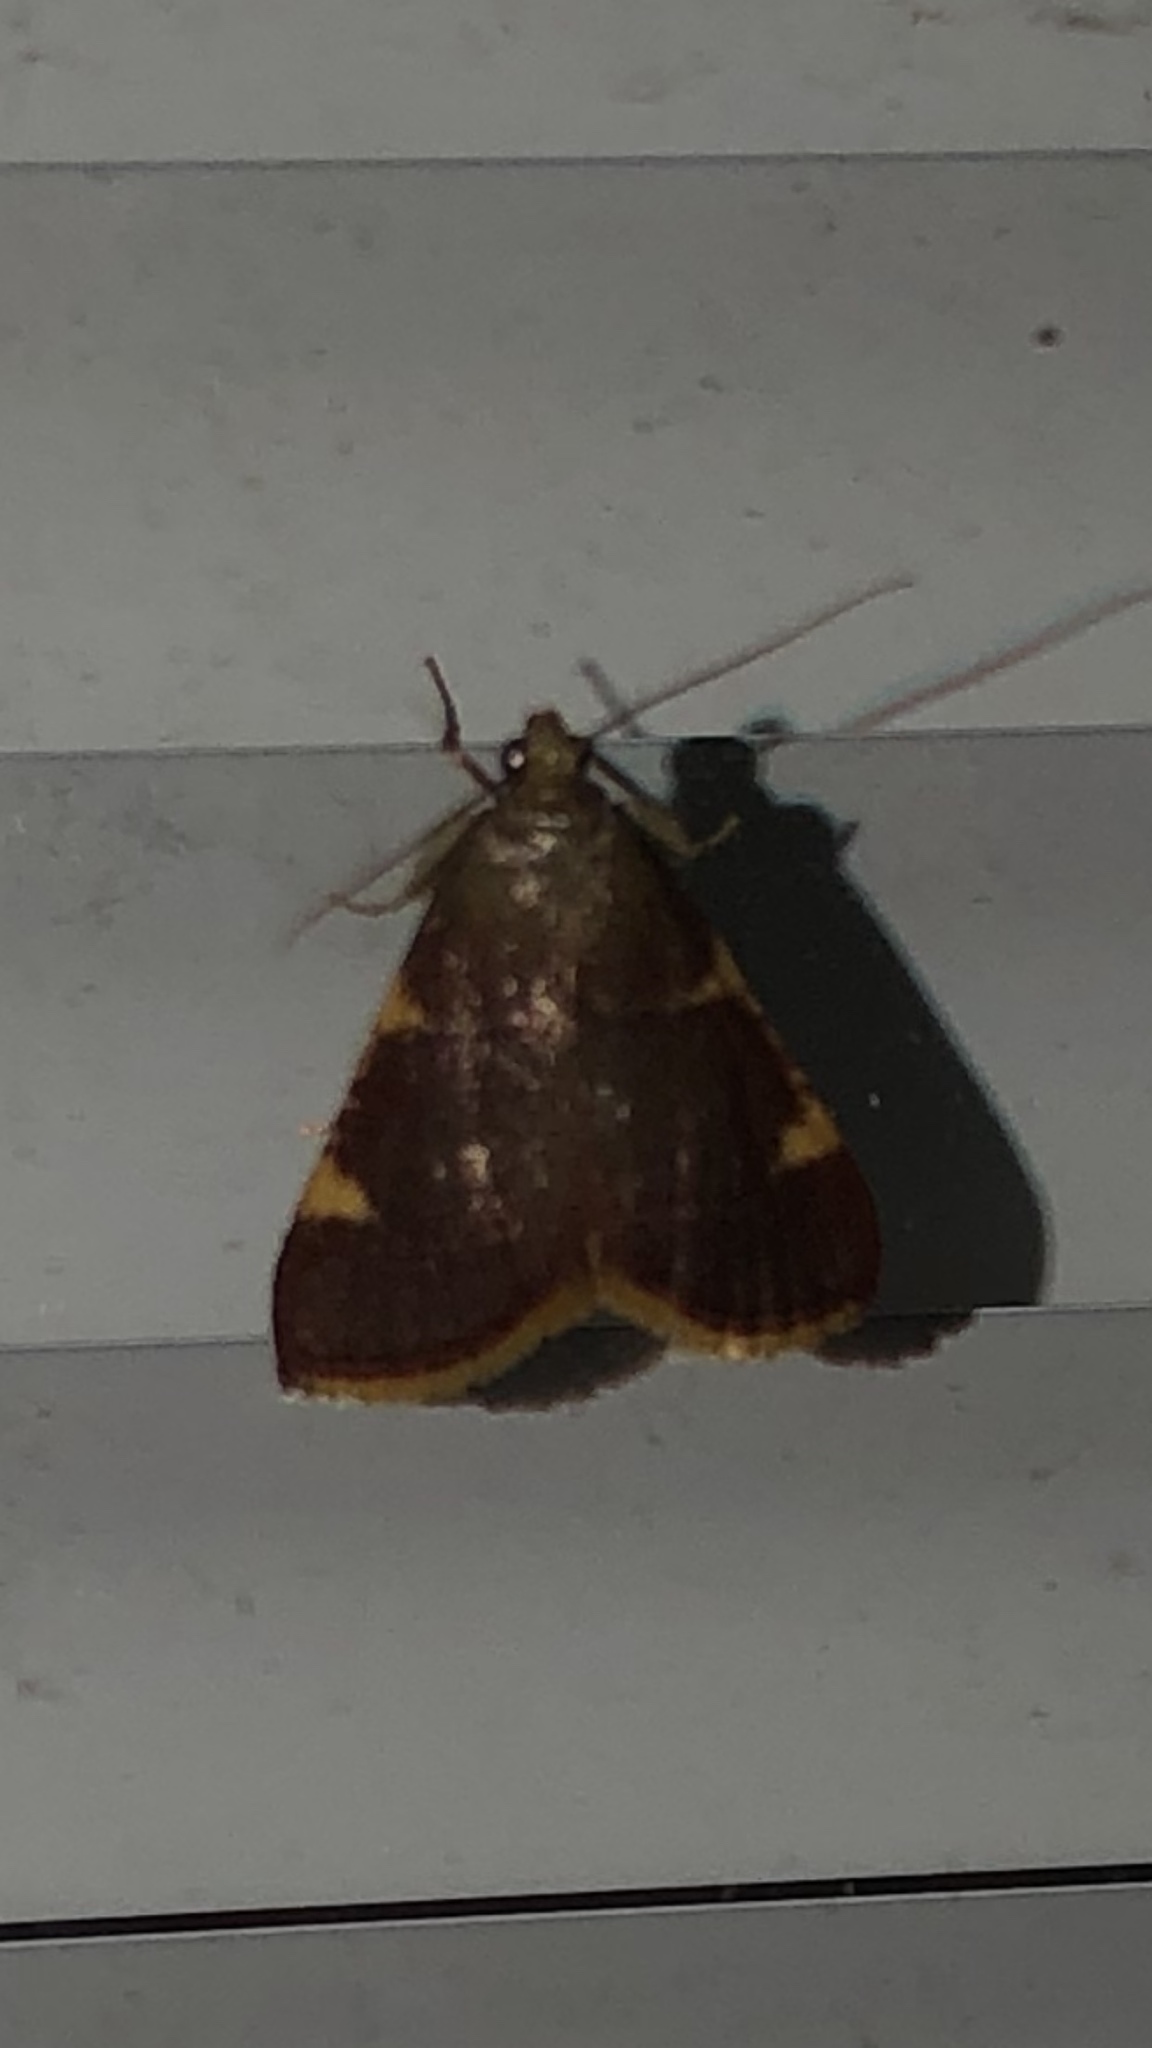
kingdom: Animalia
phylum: Arthropoda
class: Insecta
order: Lepidoptera
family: Pyralidae
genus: Hypsopygia
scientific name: Hypsopygia olinalis
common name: Yellow-fringed dolichomia moth
